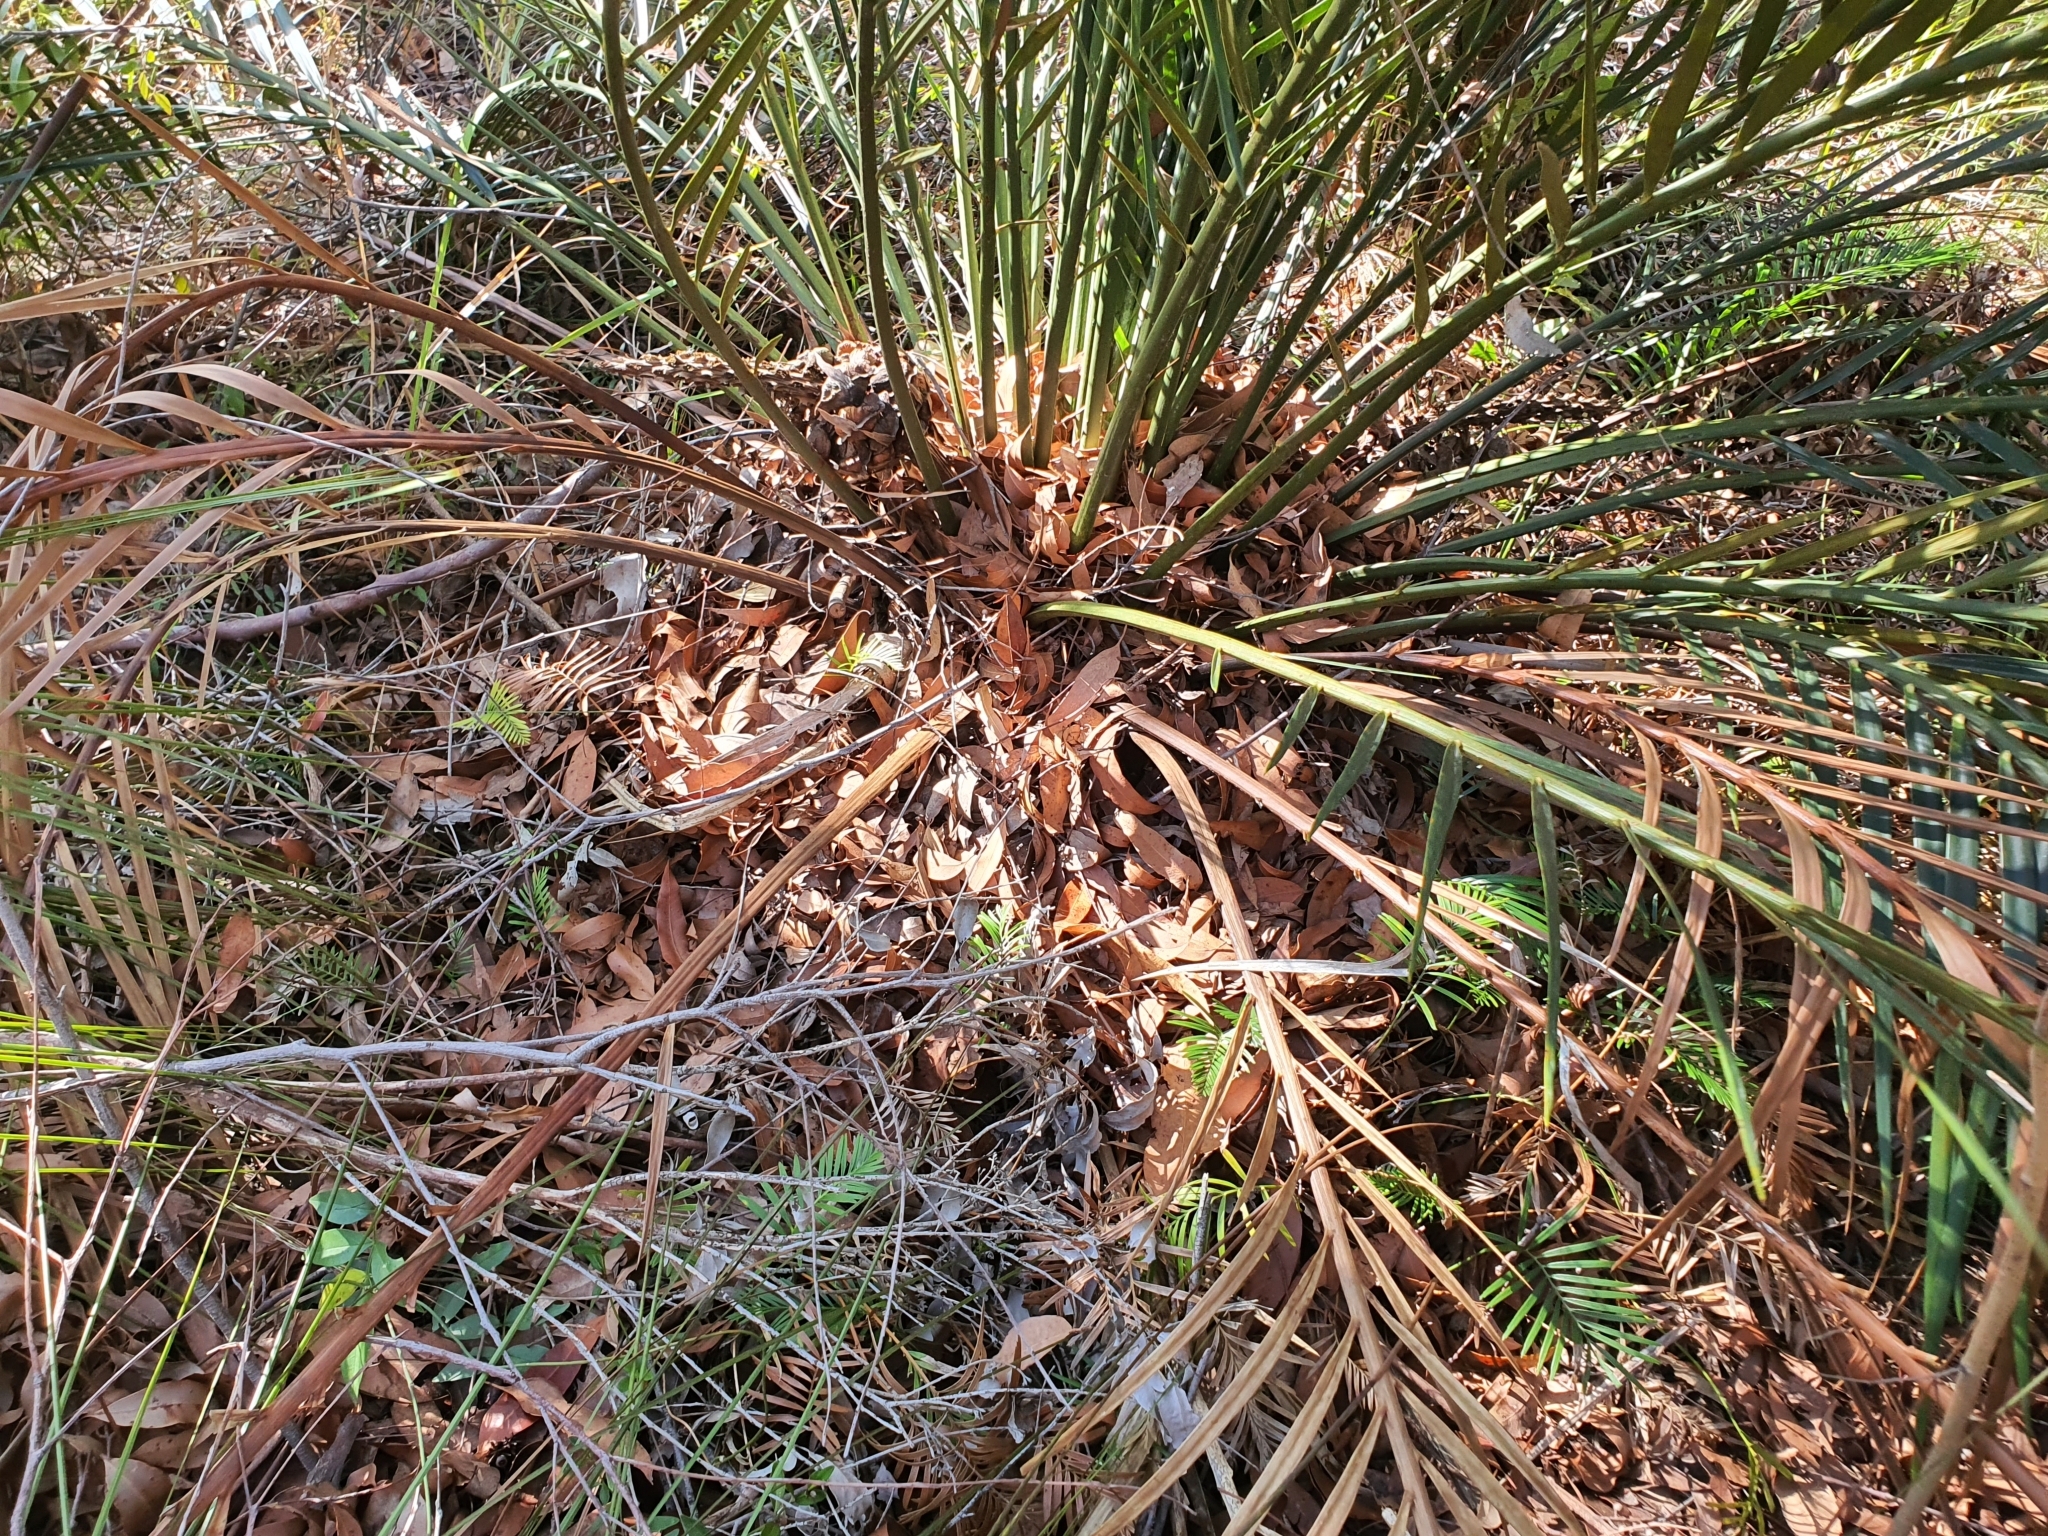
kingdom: Plantae
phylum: Tracheophyta
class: Cycadopsida
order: Cycadales
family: Zamiaceae
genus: Macrozamia
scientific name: Macrozamia communis
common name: Burrawong
